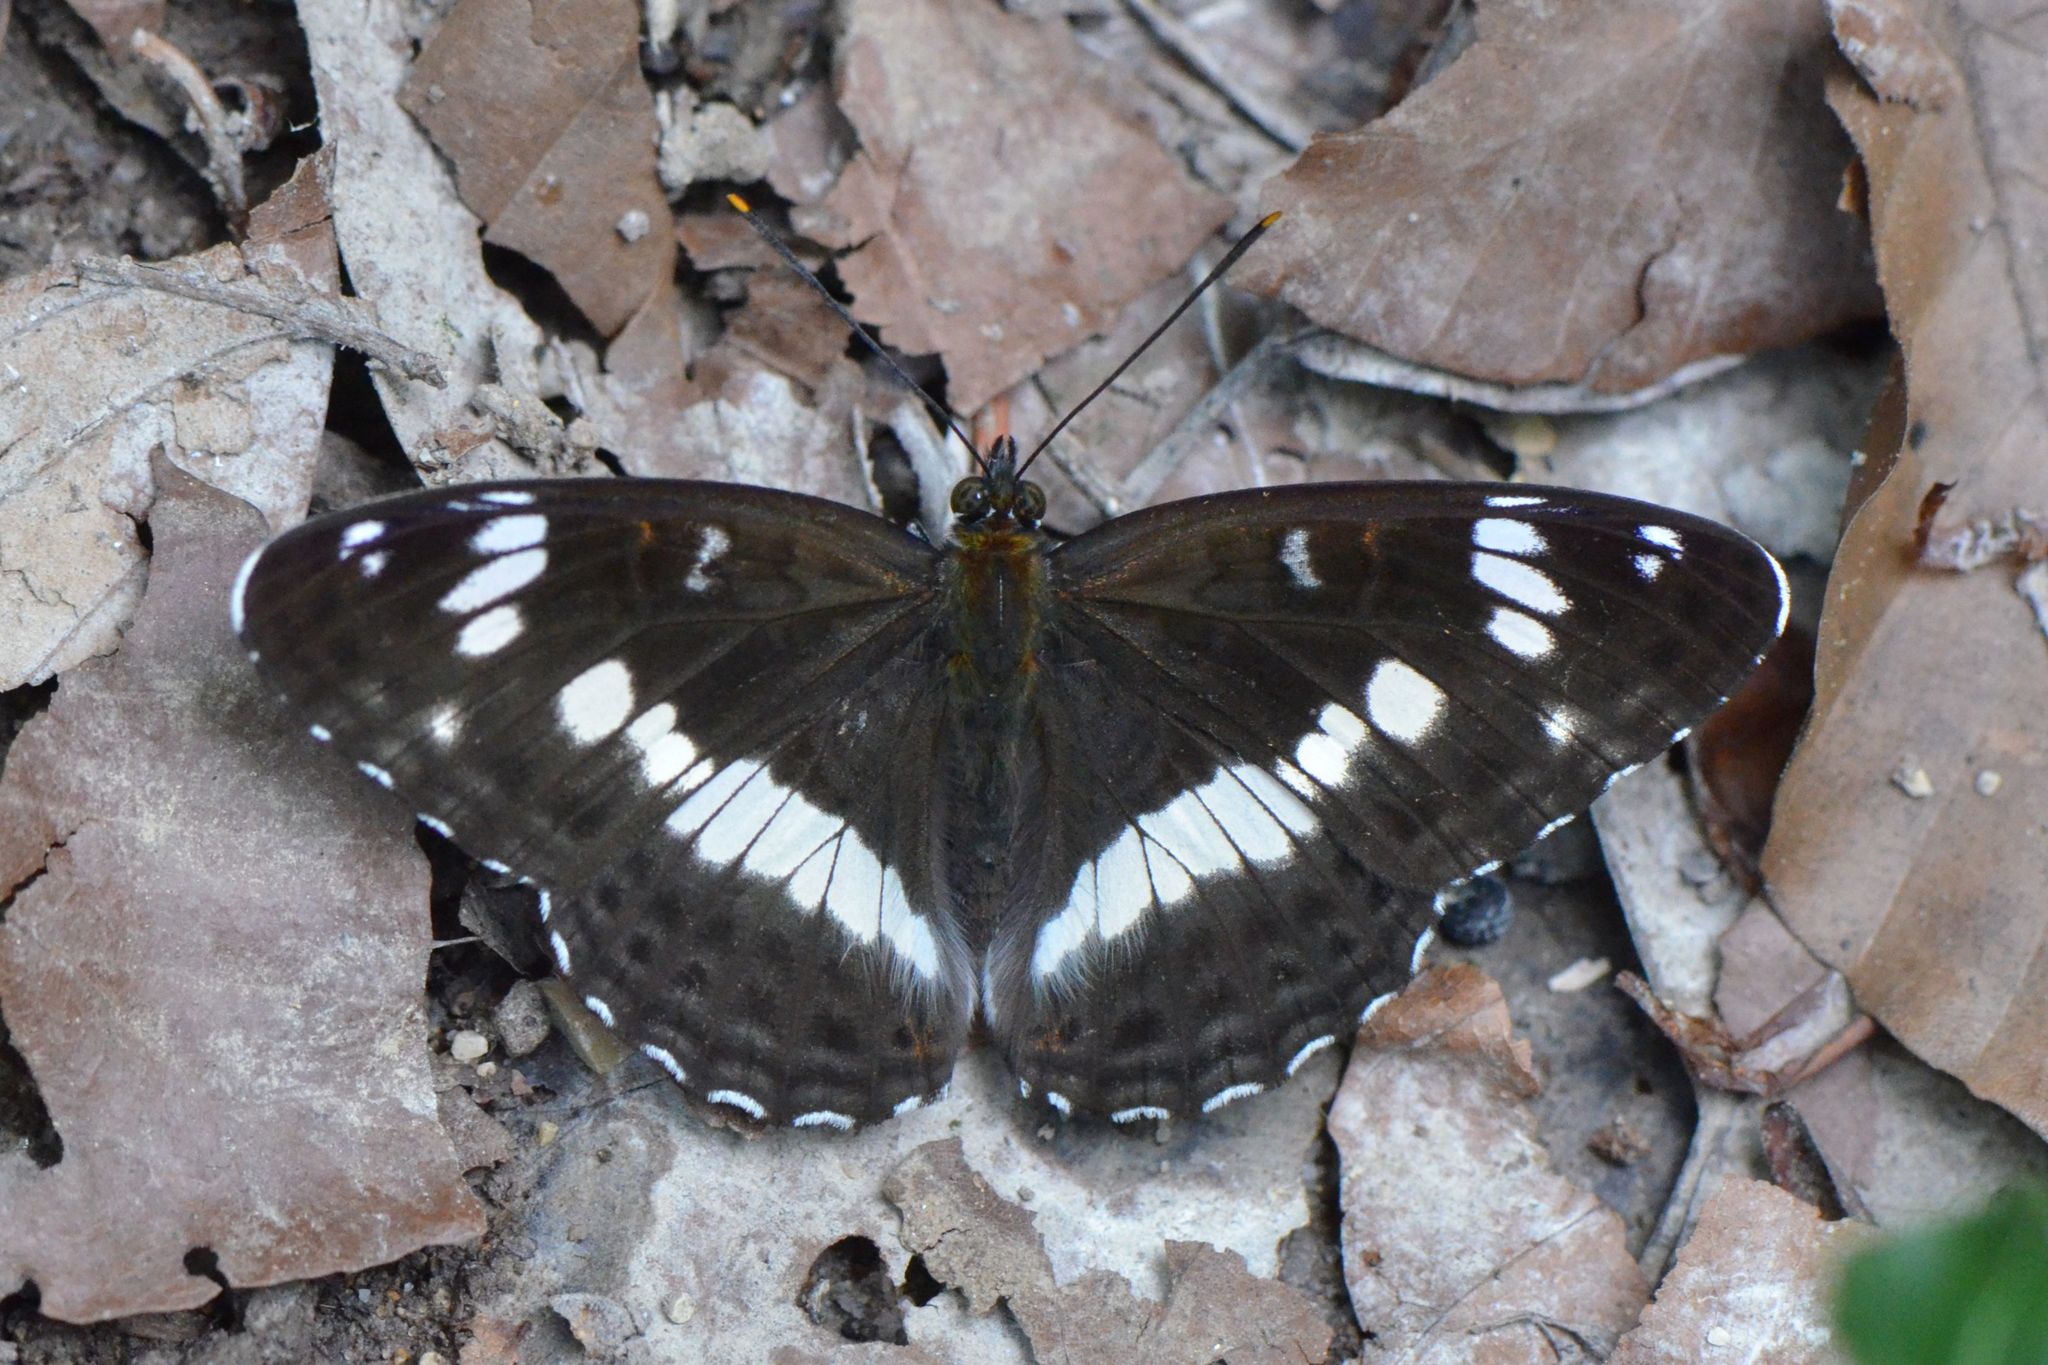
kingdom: Animalia
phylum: Arthropoda
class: Insecta
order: Lepidoptera
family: Nymphalidae
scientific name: Nymphalidae
